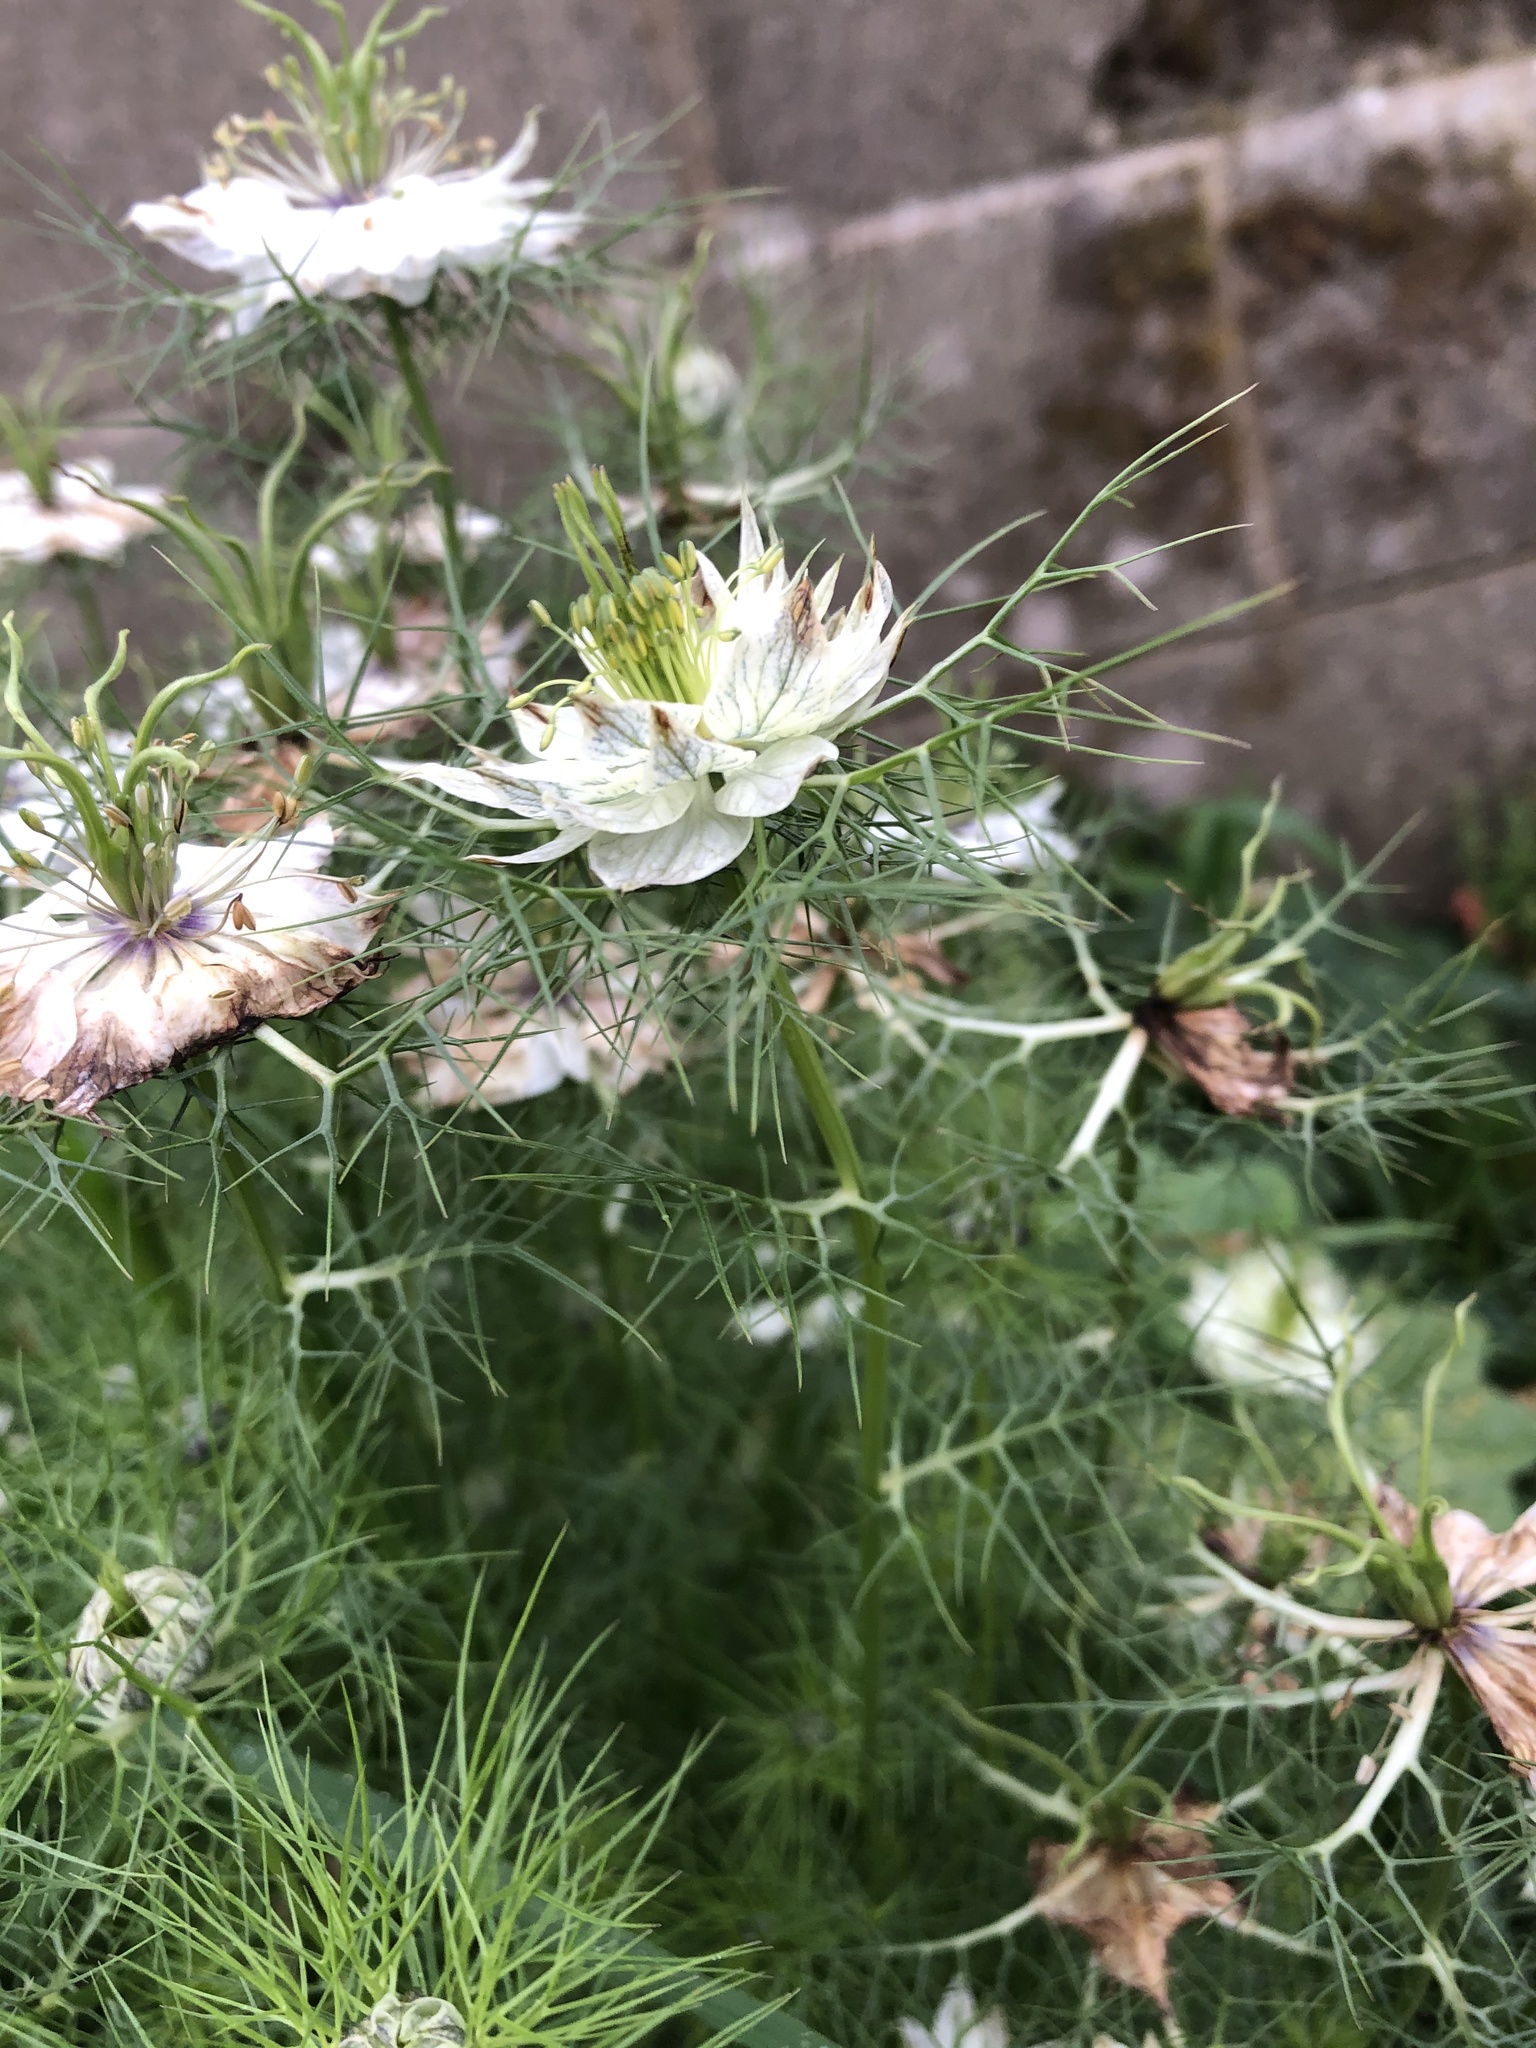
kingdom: Plantae
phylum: Tracheophyta
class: Magnoliopsida
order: Ranunculales
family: Ranunculaceae
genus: Nigella
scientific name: Nigella damascena
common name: Love-in-a-mist
